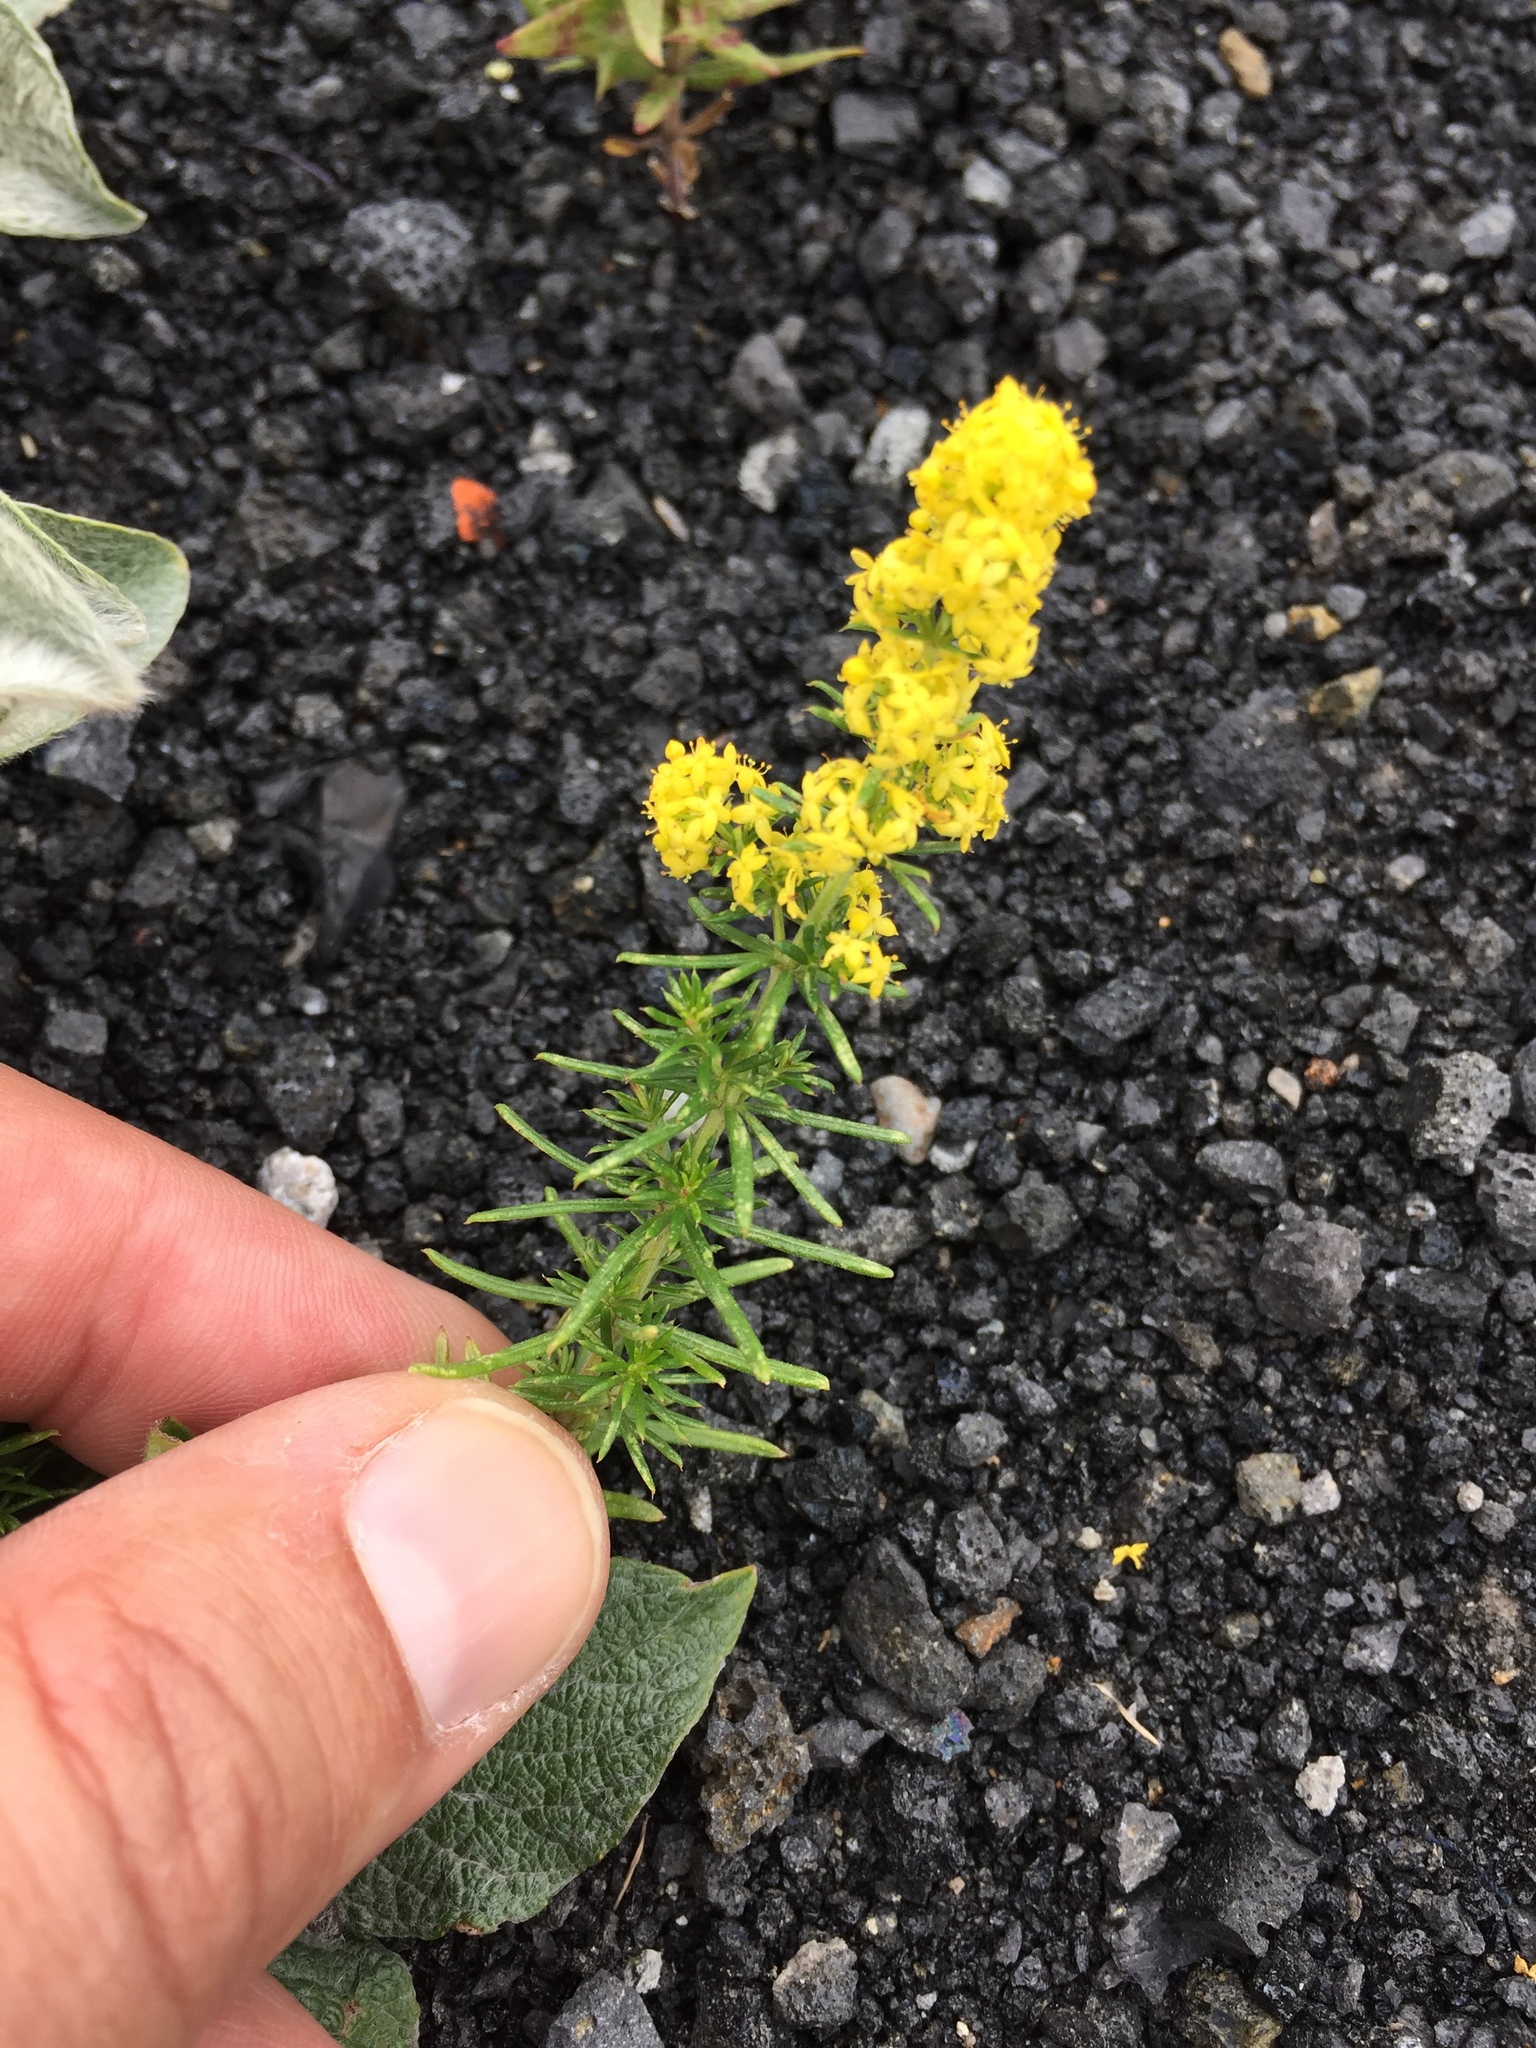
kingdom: Plantae
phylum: Tracheophyta
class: Magnoliopsida
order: Gentianales
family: Rubiaceae
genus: Galium
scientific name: Galium verum
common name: Lady's bedstraw
